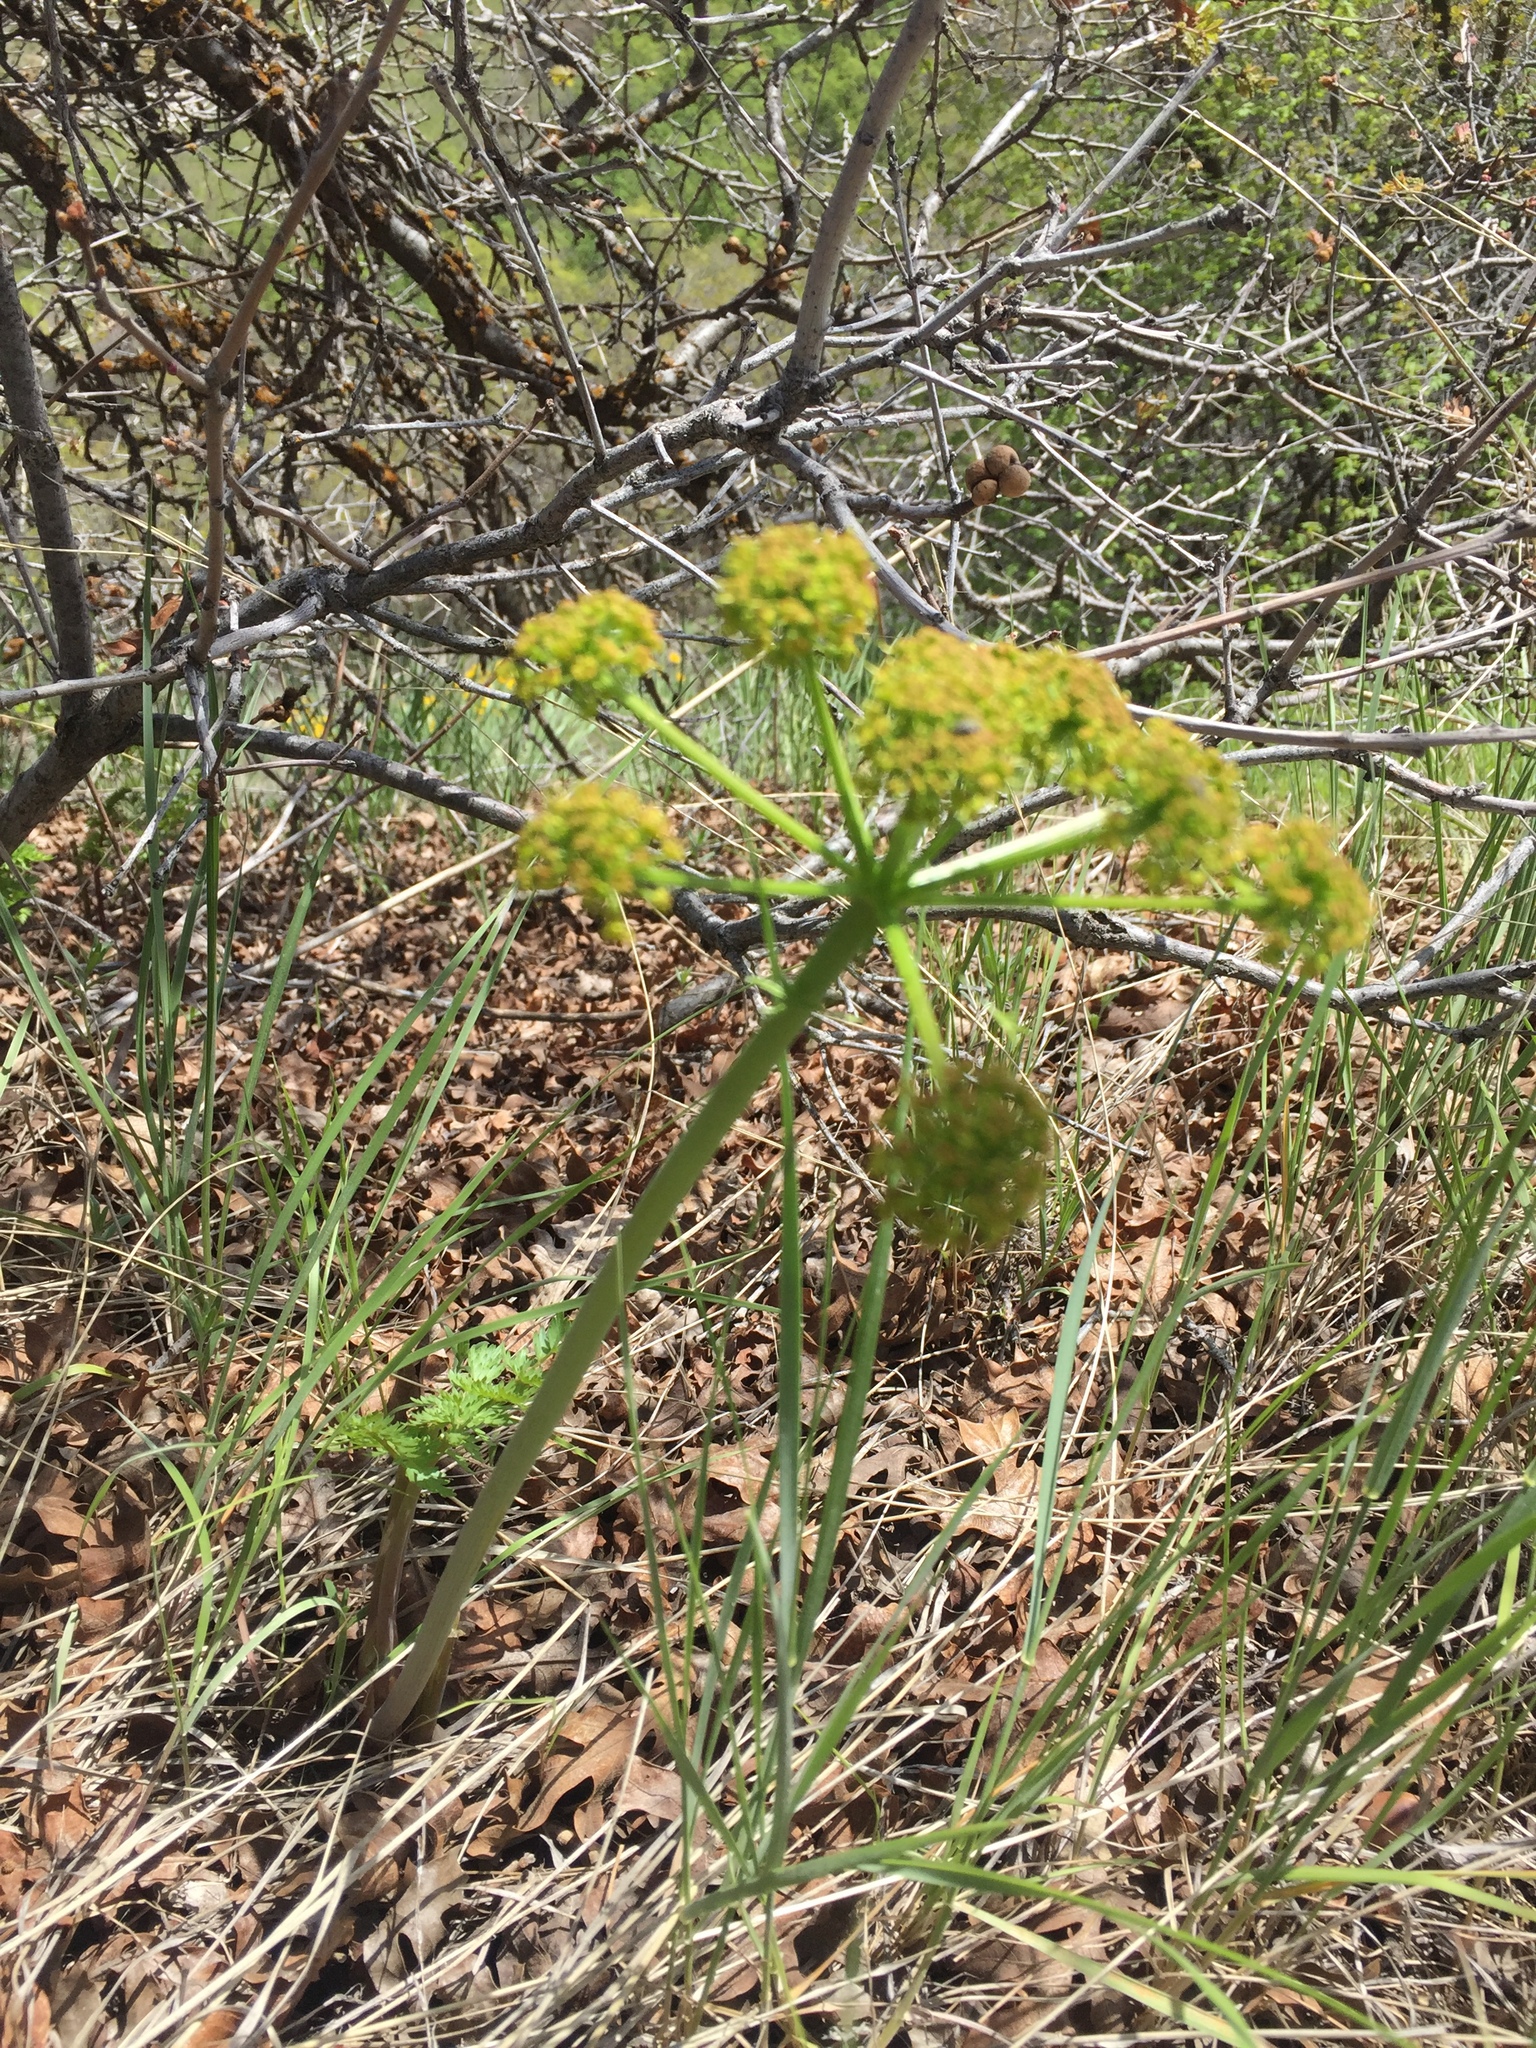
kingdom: Plantae
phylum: Tracheophyta
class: Magnoliopsida
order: Apiales
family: Apiaceae
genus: Lomatium
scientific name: Lomatium dissectum
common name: Lomatium
